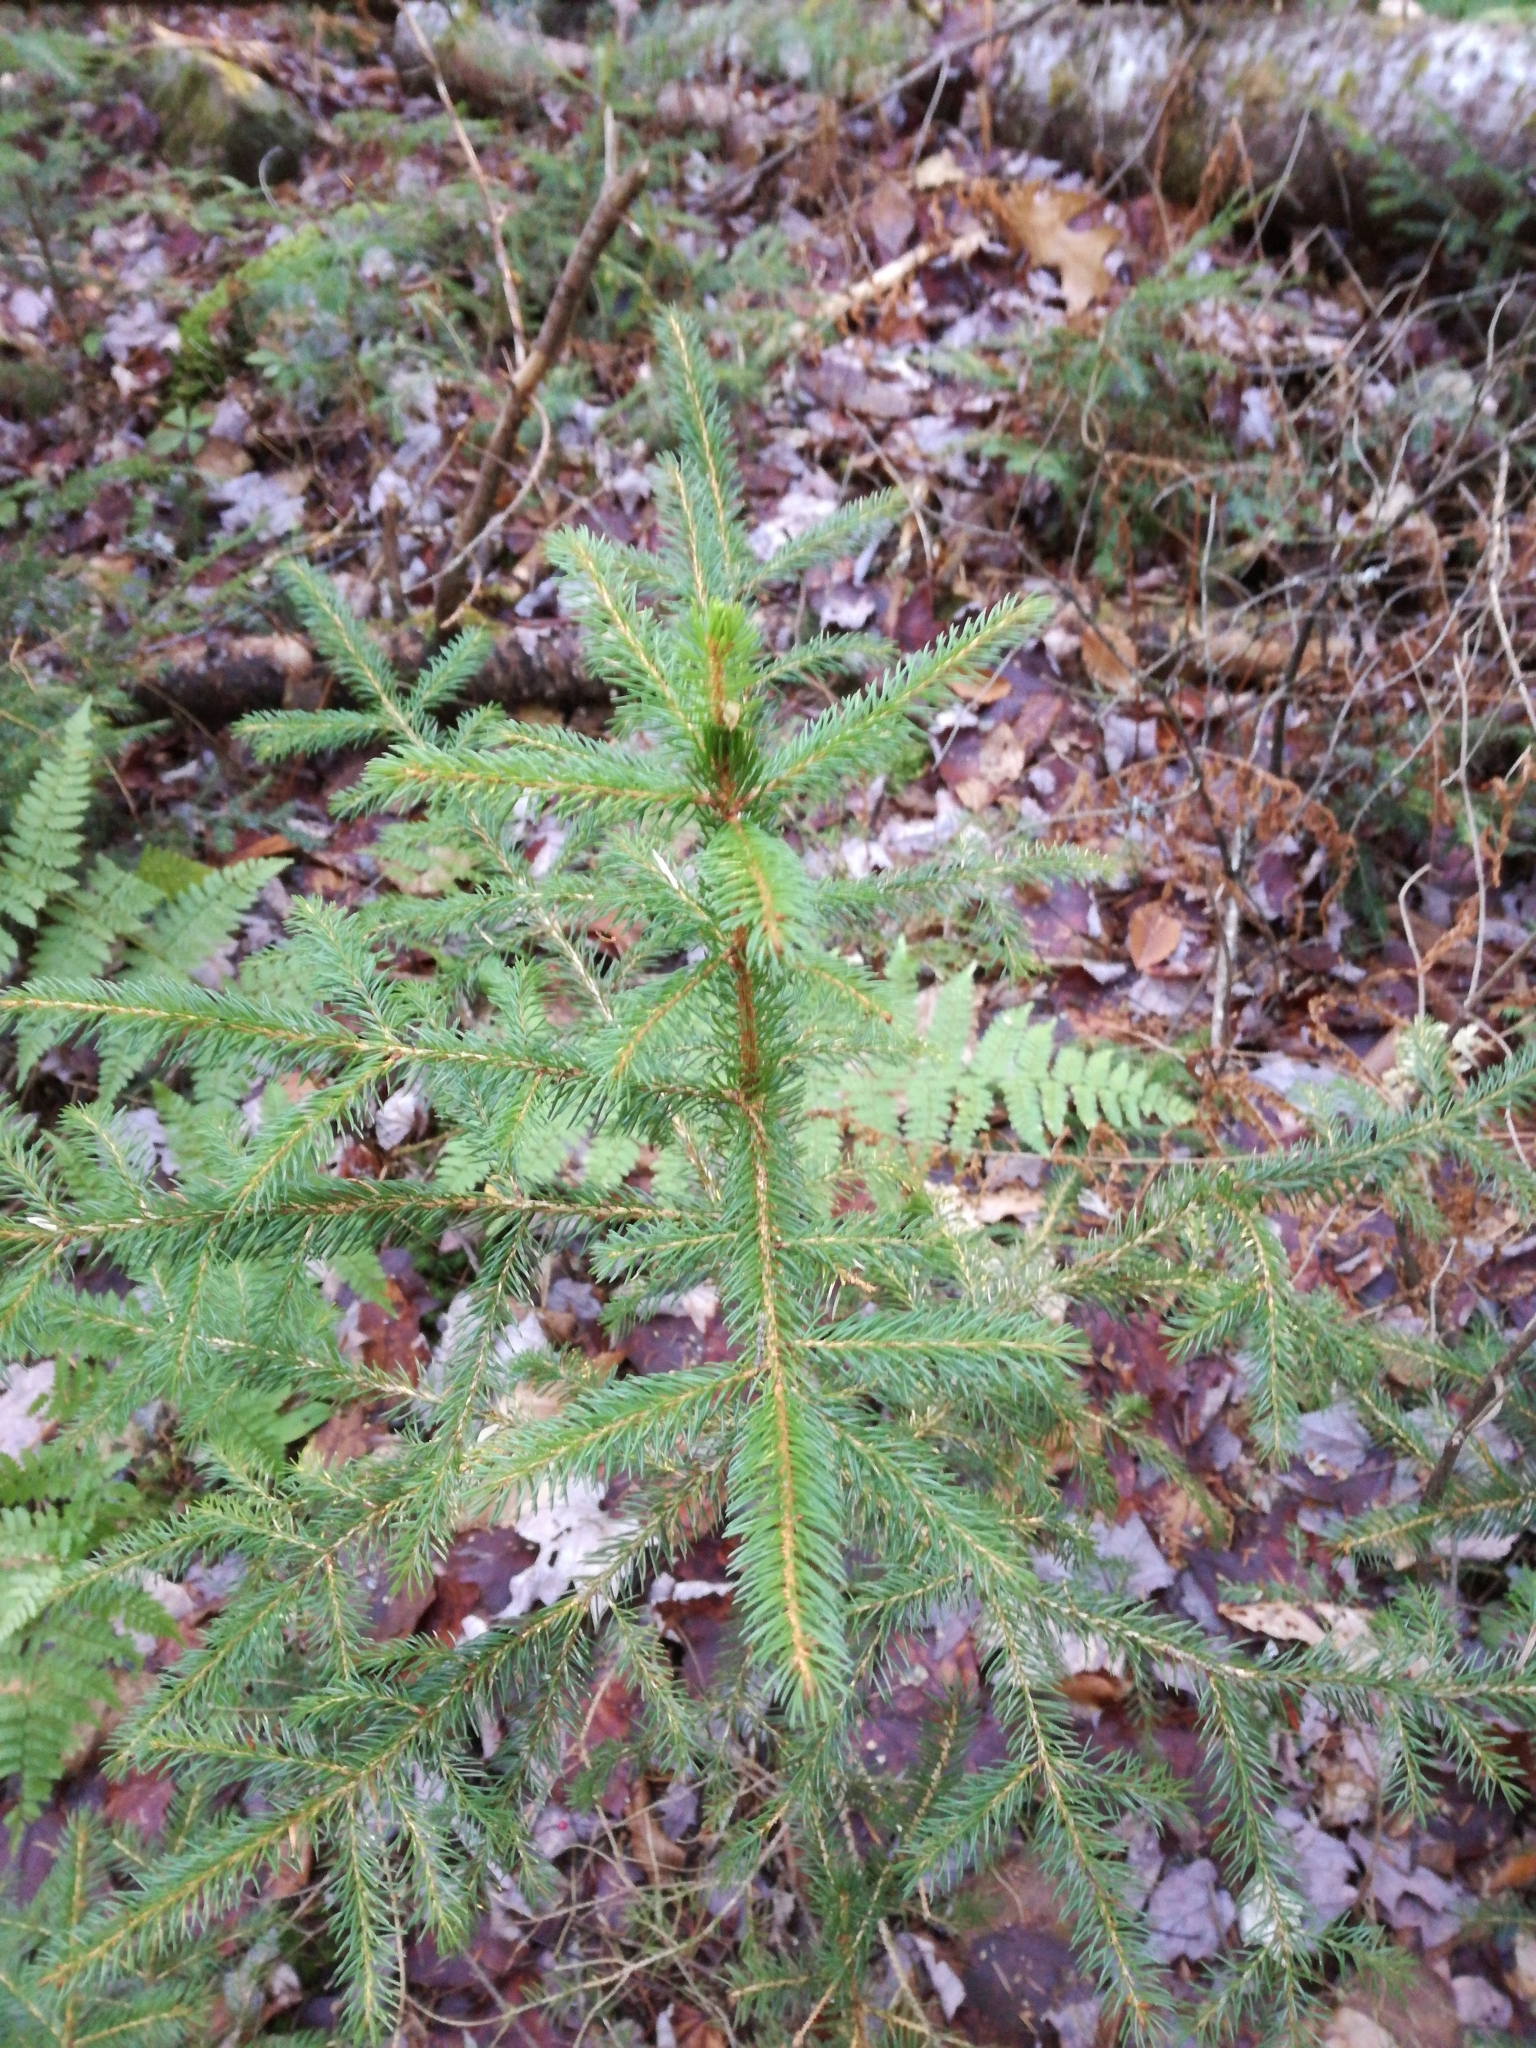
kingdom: Plantae
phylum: Tracheophyta
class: Pinopsida
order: Pinales
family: Pinaceae
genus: Picea
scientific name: Picea rubens
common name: Red spruce
